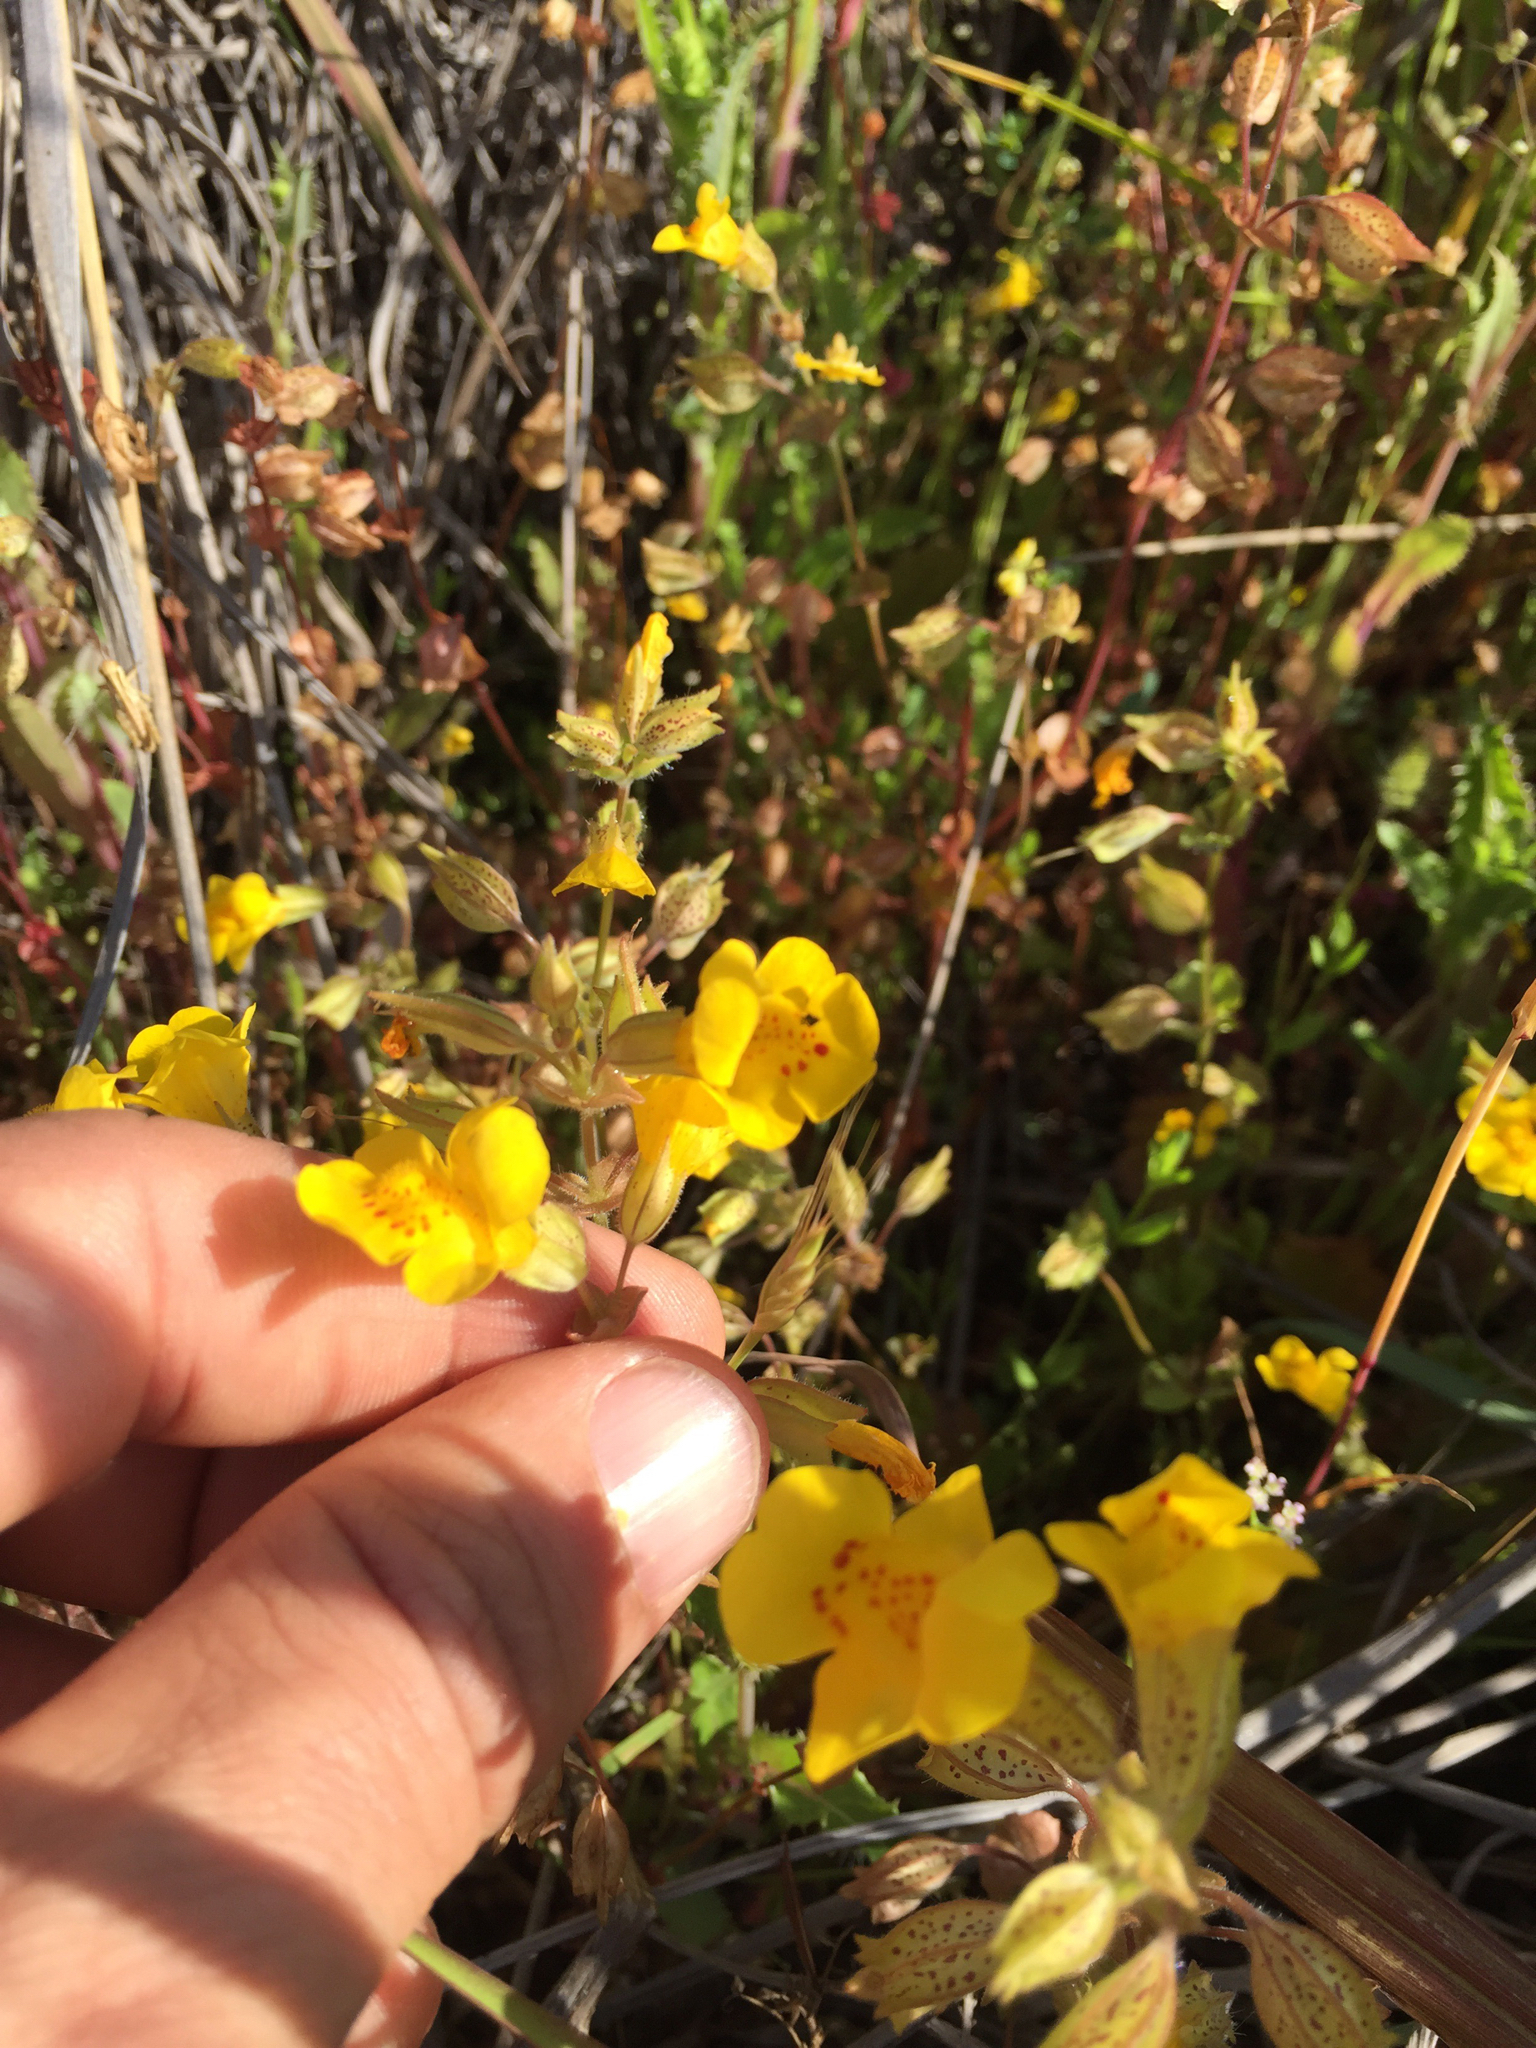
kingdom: Plantae
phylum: Tracheophyta
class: Magnoliopsida
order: Lamiales
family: Phrymaceae
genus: Erythranthe
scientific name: Erythranthe guttata
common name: Monkeyflower
